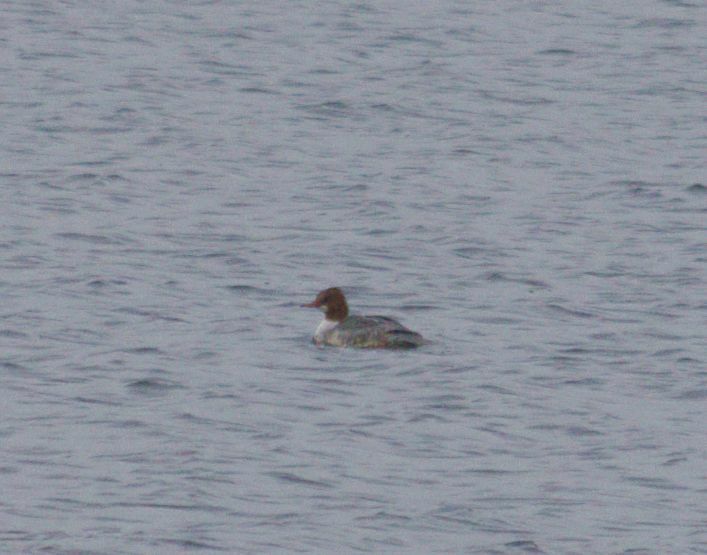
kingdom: Animalia
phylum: Chordata
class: Aves
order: Anseriformes
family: Anatidae
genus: Mergus
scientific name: Mergus merganser
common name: Common merganser
